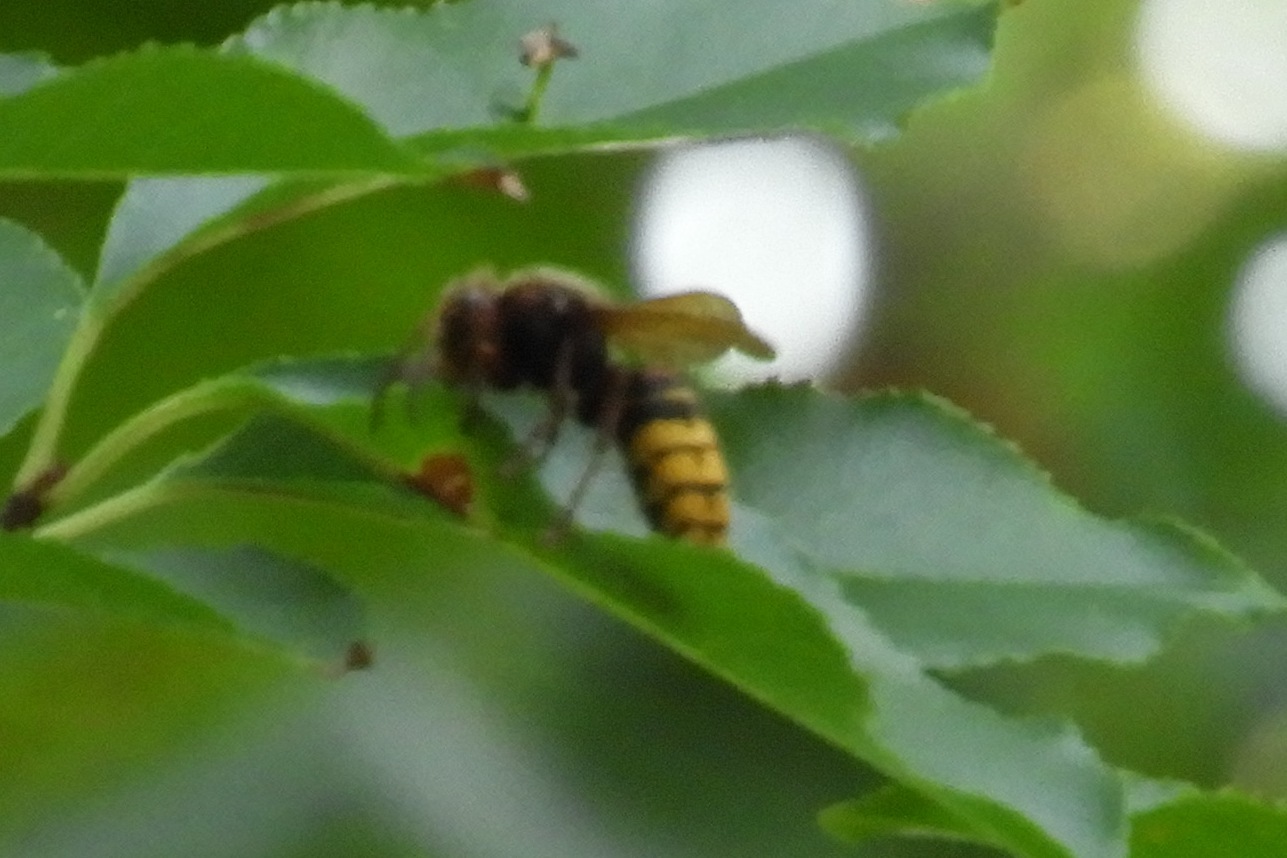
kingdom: Animalia
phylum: Arthropoda
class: Insecta
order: Hymenoptera
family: Vespidae
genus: Vespa
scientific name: Vespa crabro
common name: Hornet
